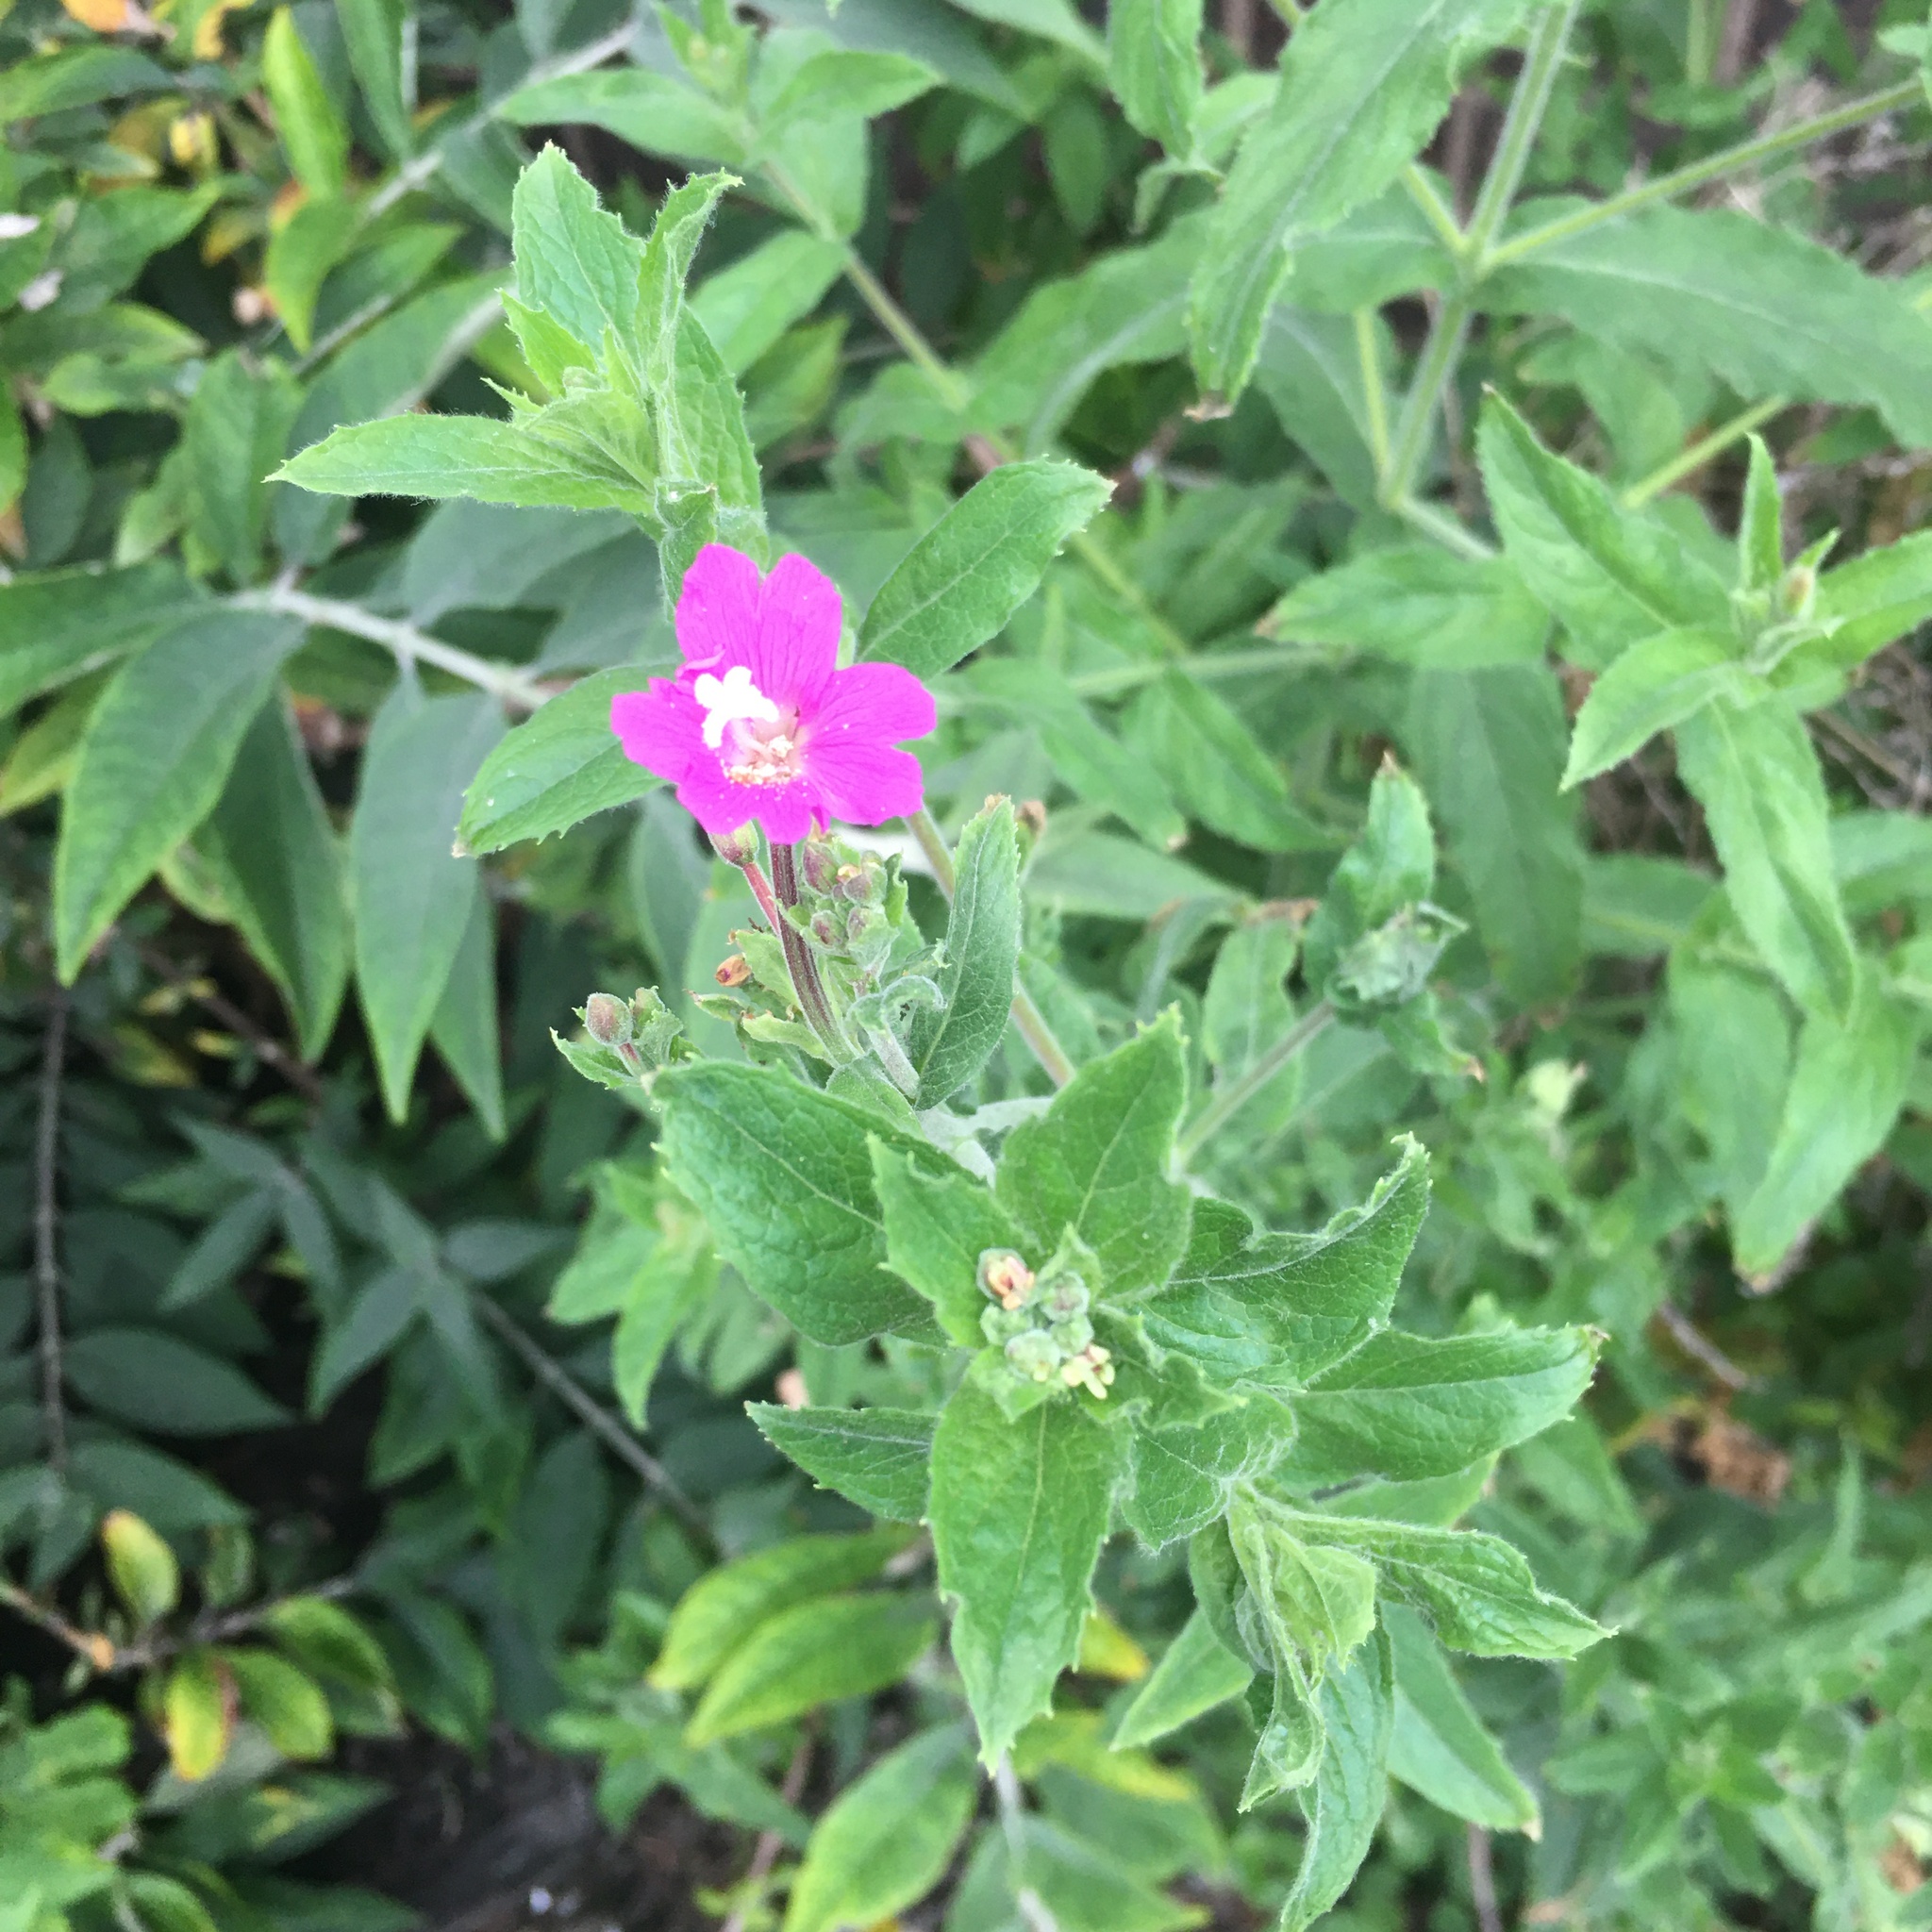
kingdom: Plantae
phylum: Tracheophyta
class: Magnoliopsida
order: Myrtales
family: Onagraceae
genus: Epilobium
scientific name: Epilobium hirsutum
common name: Great willowherb
